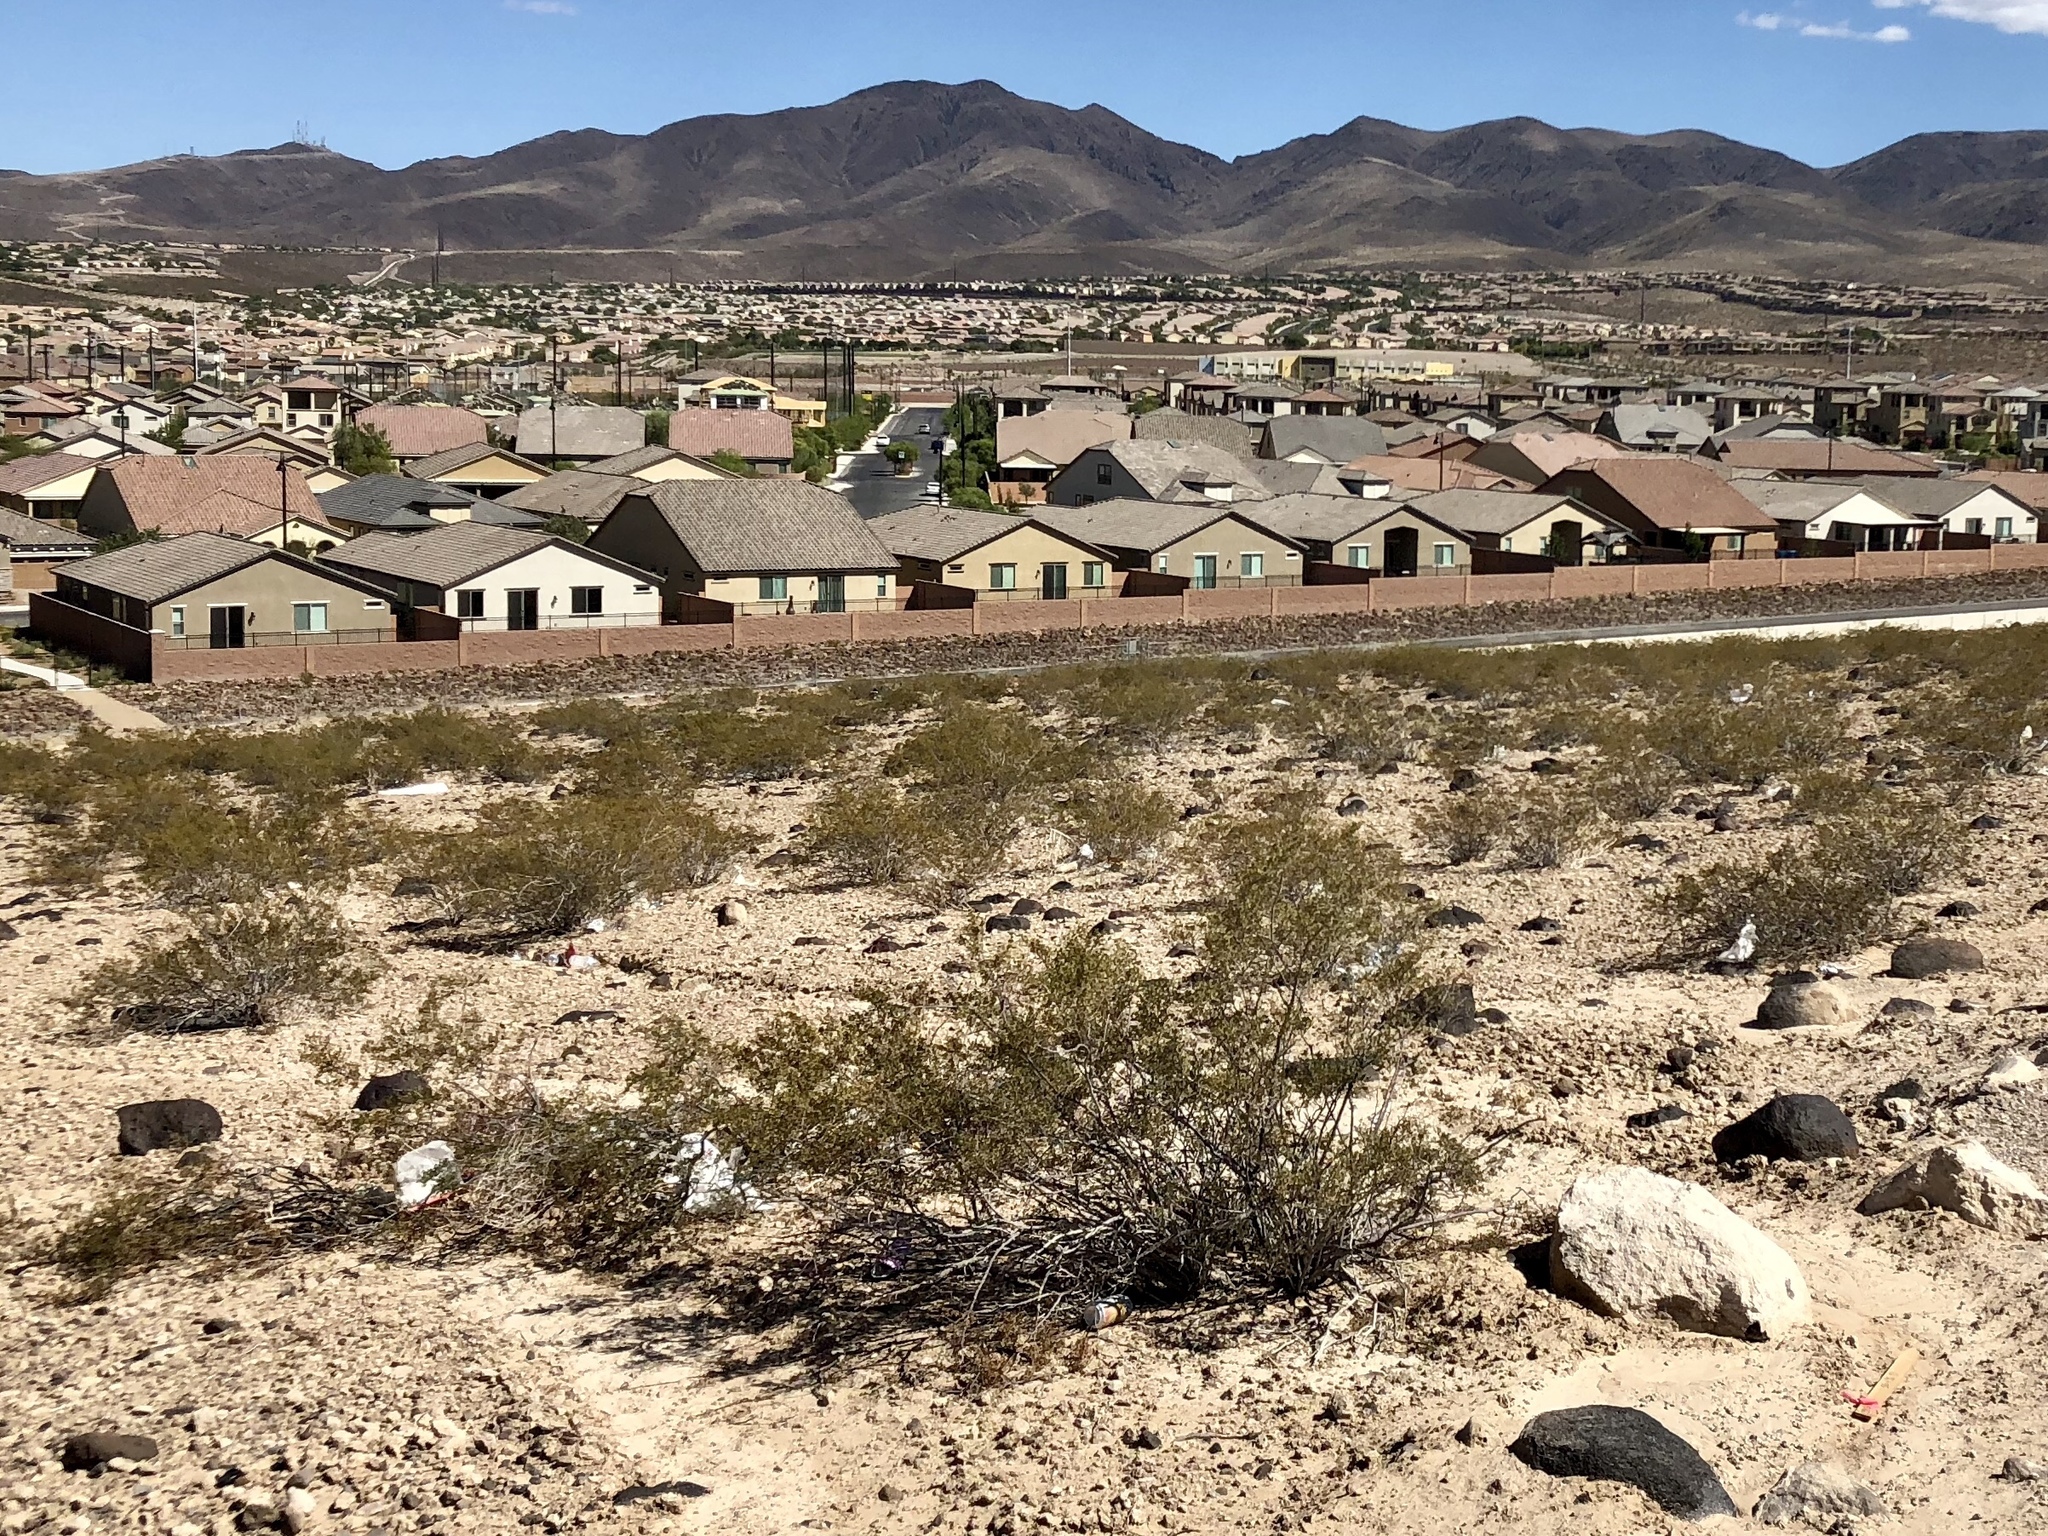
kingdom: Plantae
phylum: Tracheophyta
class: Magnoliopsida
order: Zygophyllales
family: Zygophyllaceae
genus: Larrea
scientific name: Larrea tridentata
